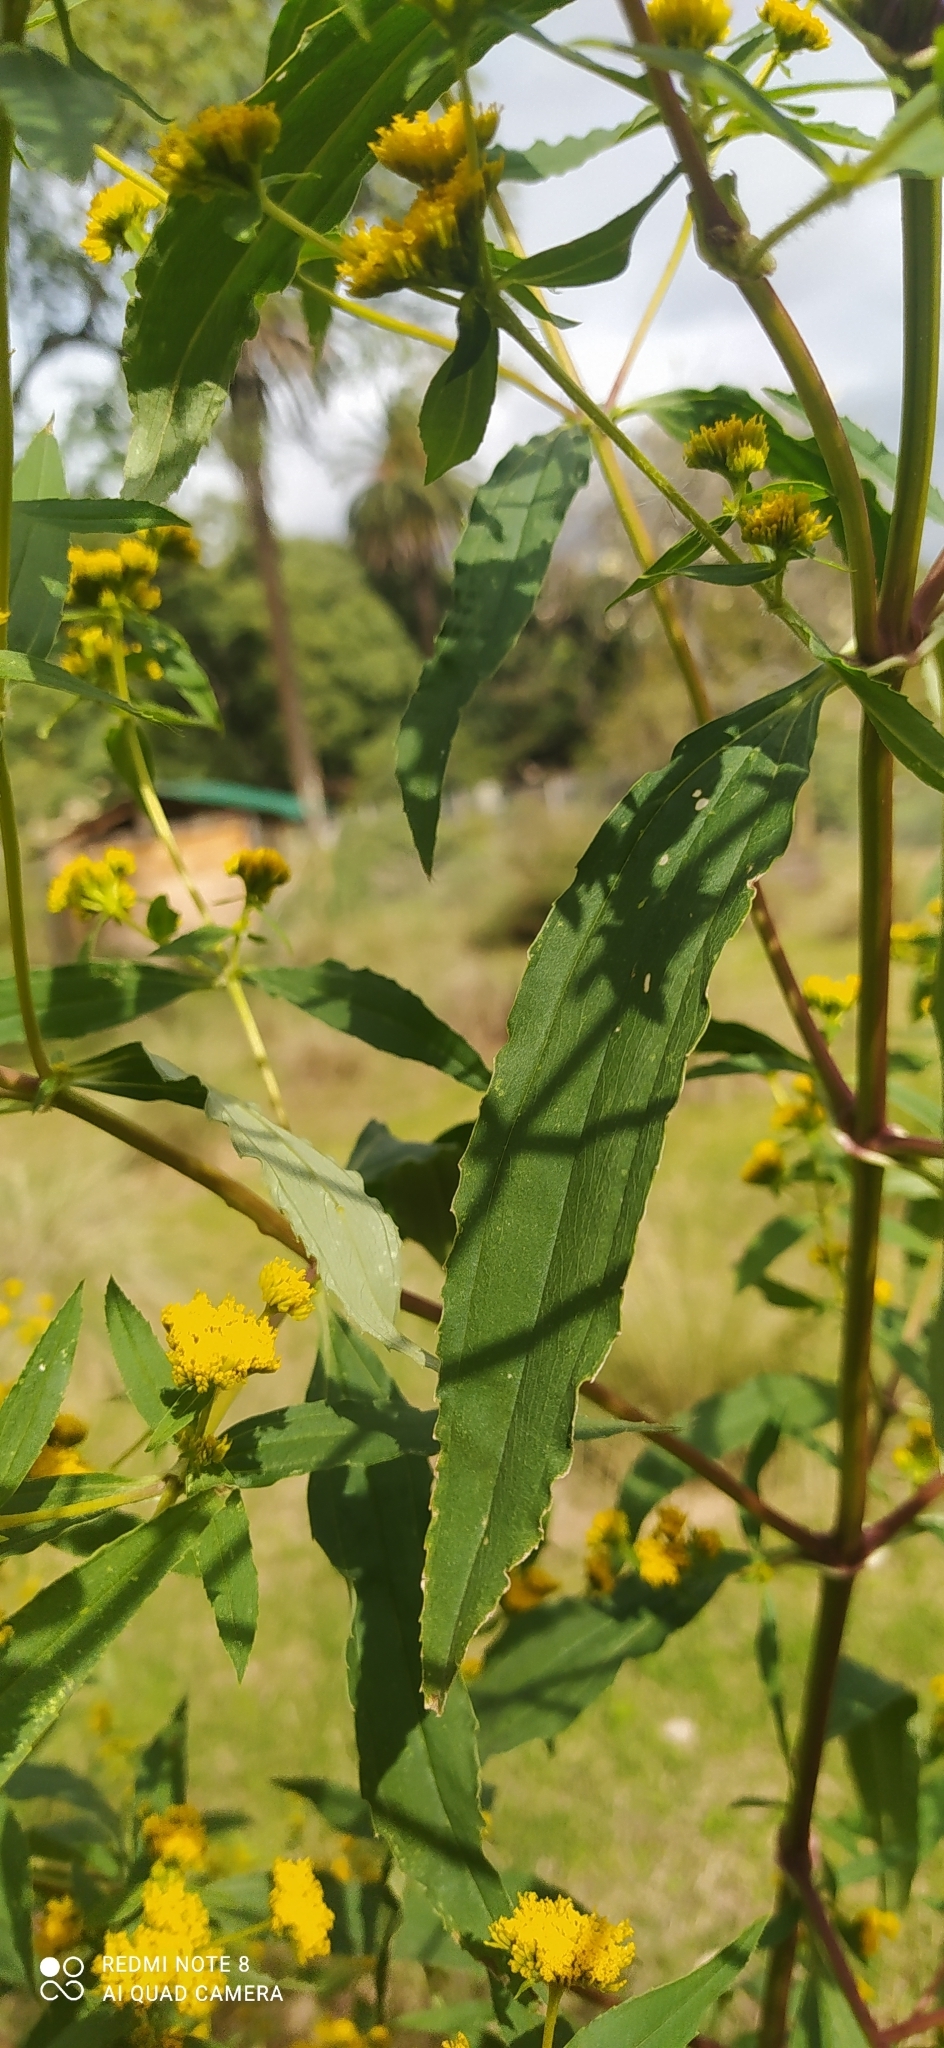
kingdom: Plantae
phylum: Tracheophyta
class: Magnoliopsida
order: Asterales
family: Asteraceae
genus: Flaveria
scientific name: Flaveria bidentis
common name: Coastal plain yellowtops
